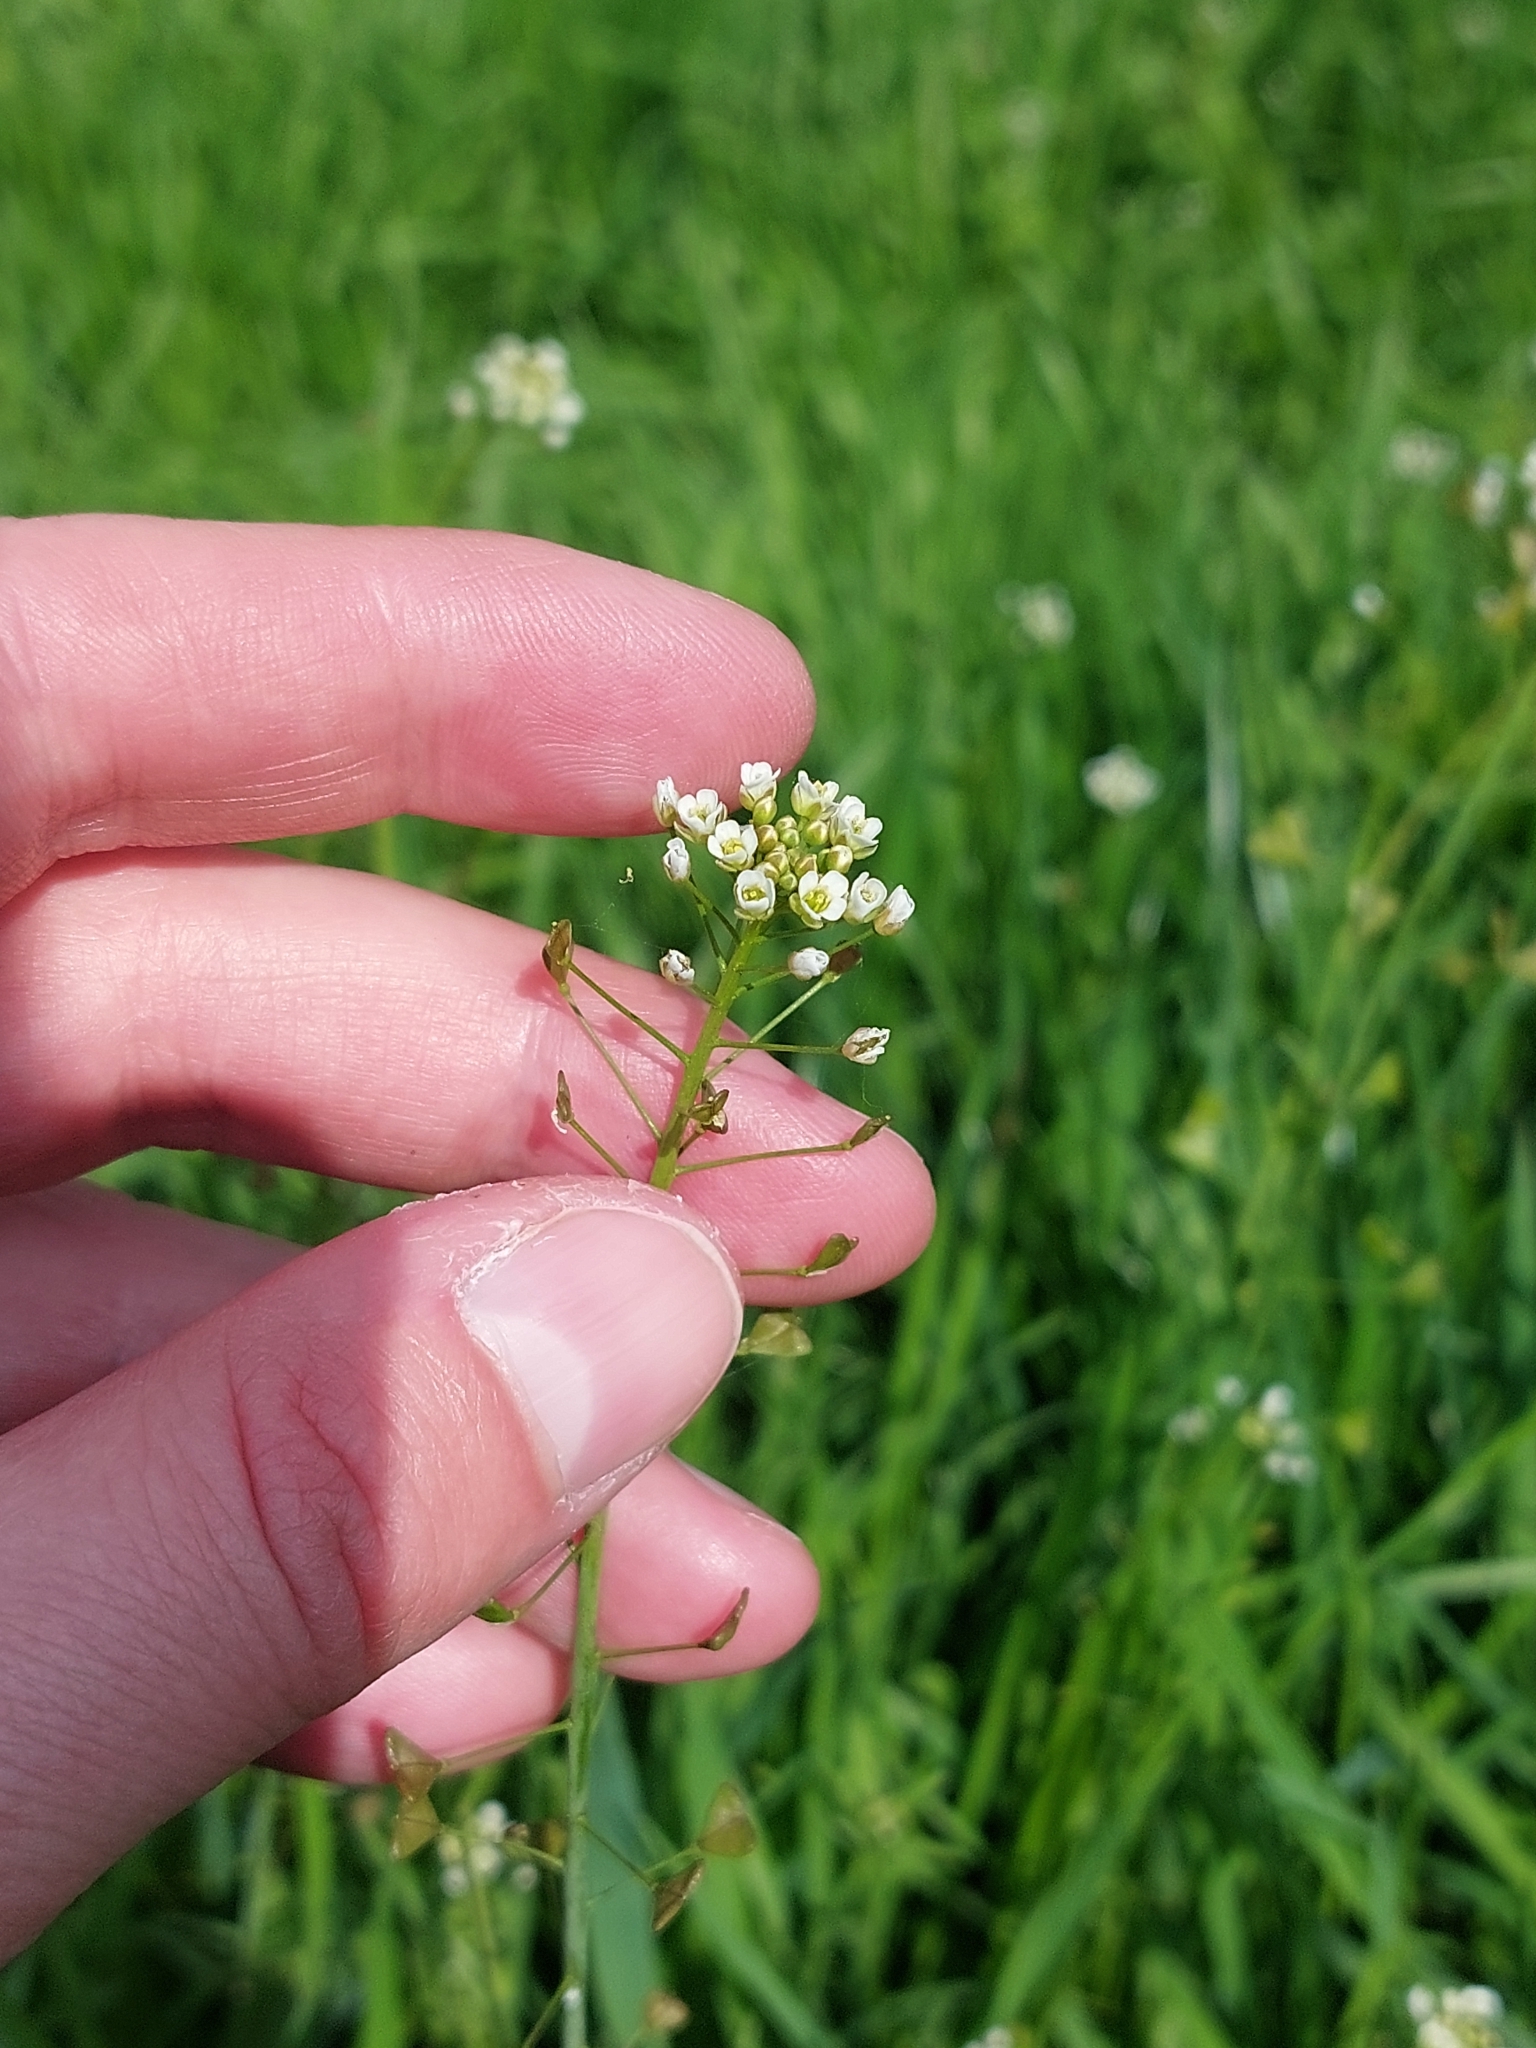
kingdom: Plantae
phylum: Tracheophyta
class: Magnoliopsida
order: Brassicales
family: Brassicaceae
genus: Capsella
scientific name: Capsella bursa-pastoris
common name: Shepherd's purse
